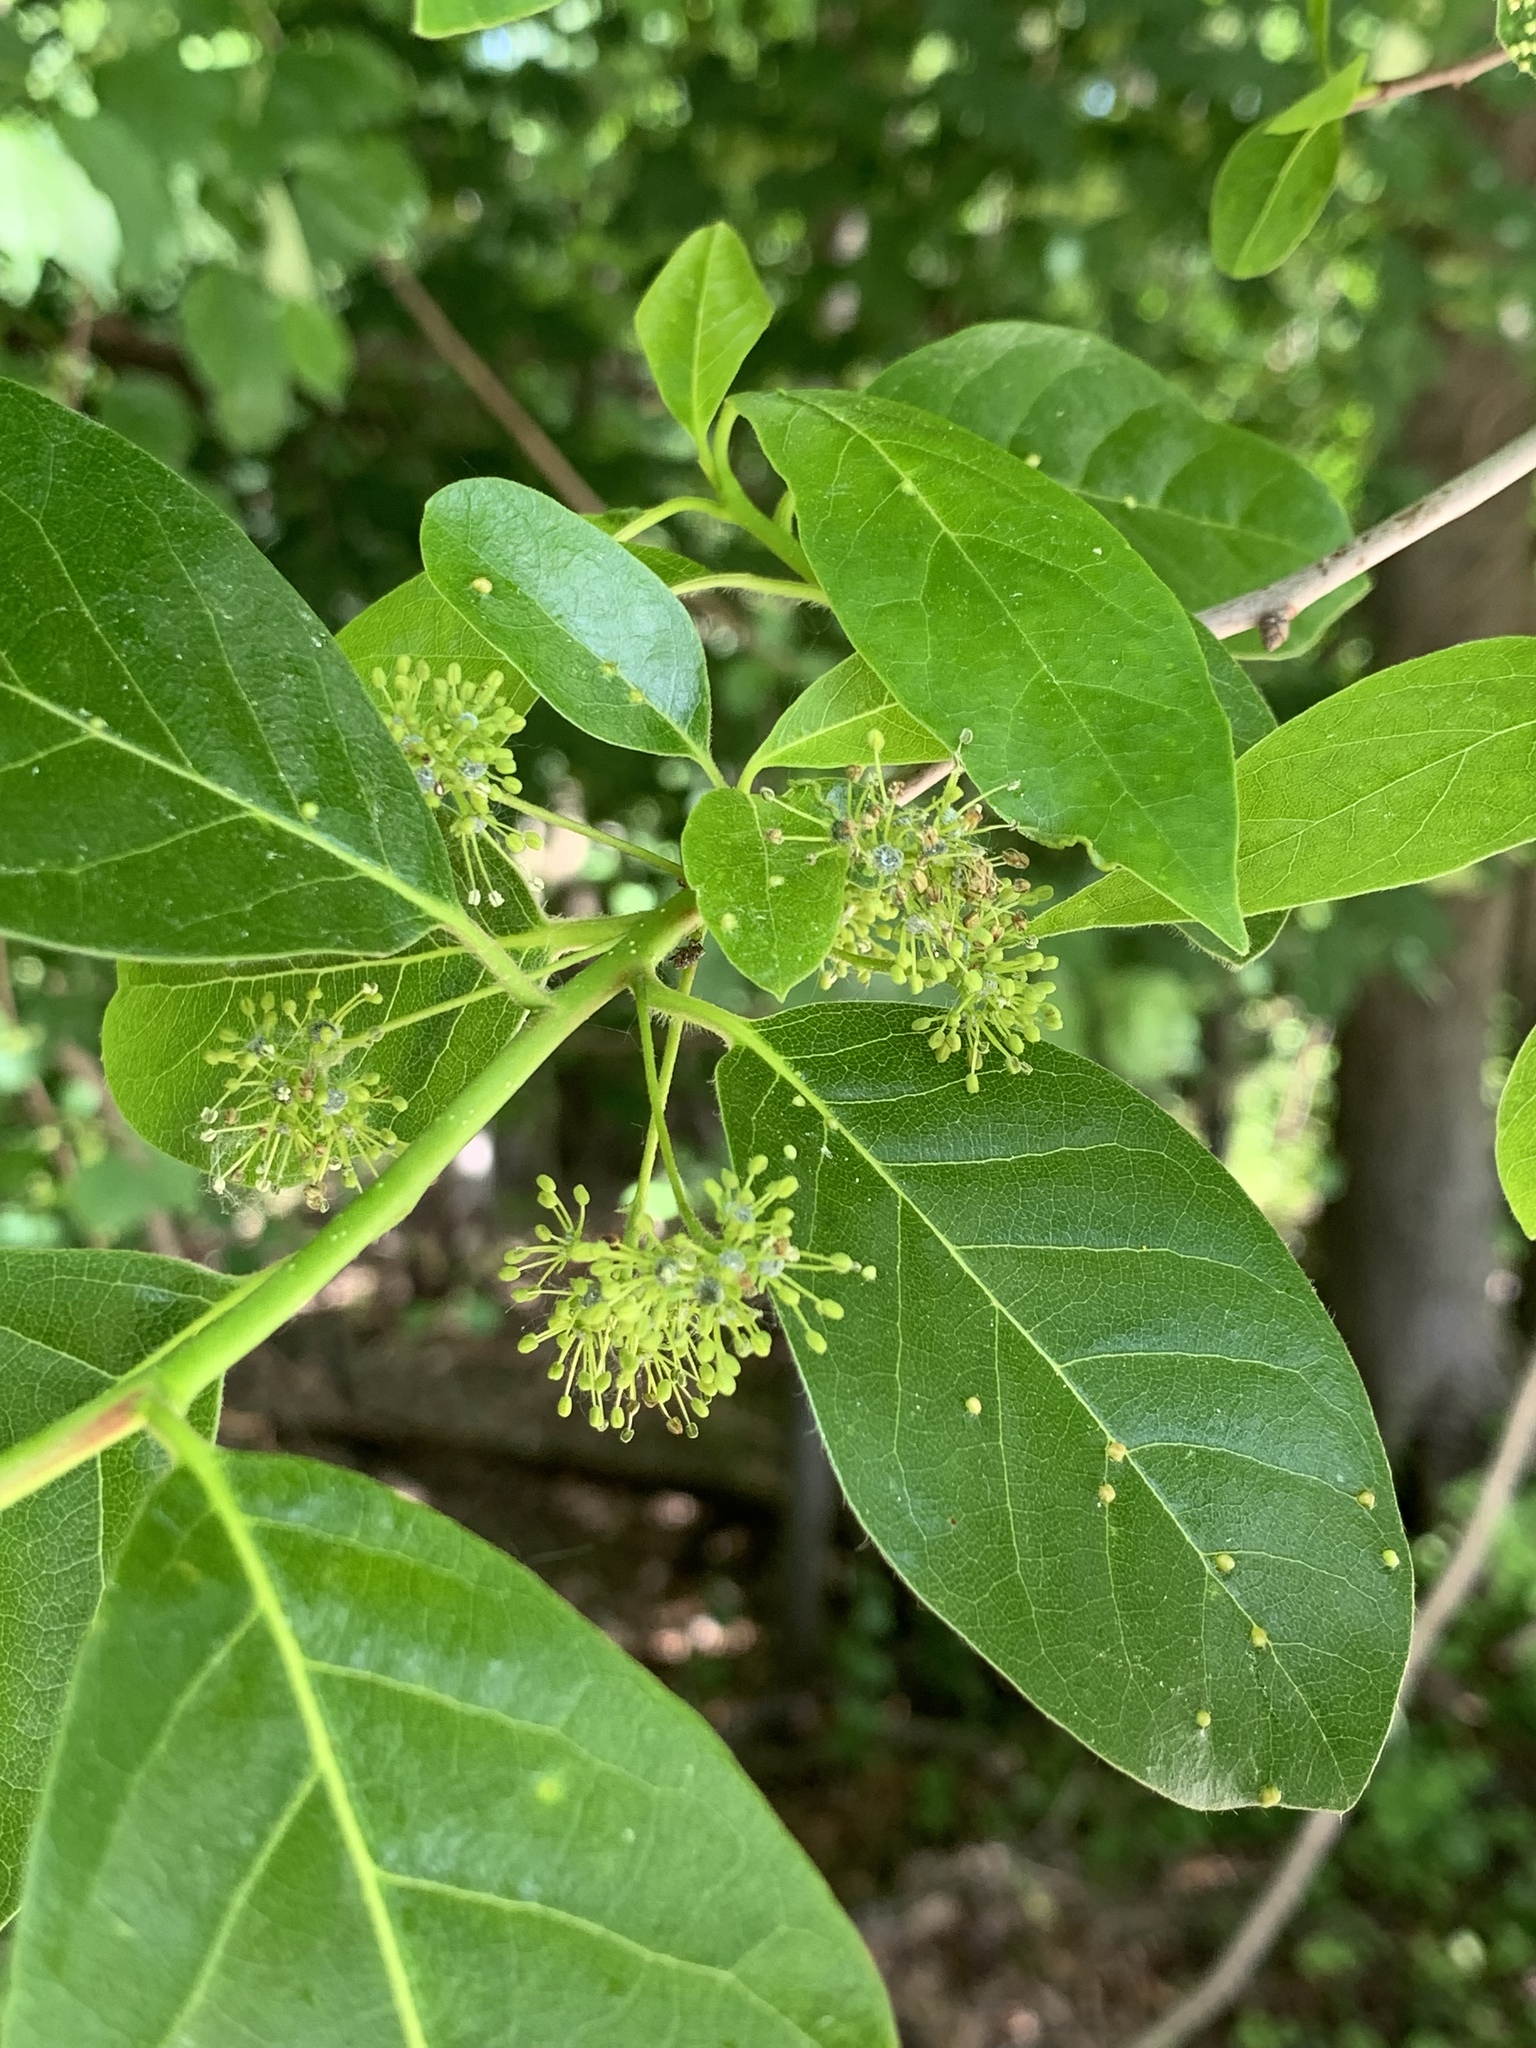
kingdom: Plantae
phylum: Tracheophyta
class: Magnoliopsida
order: Cornales
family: Nyssaceae
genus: Nyssa
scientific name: Nyssa sylvatica
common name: Black tupelo
